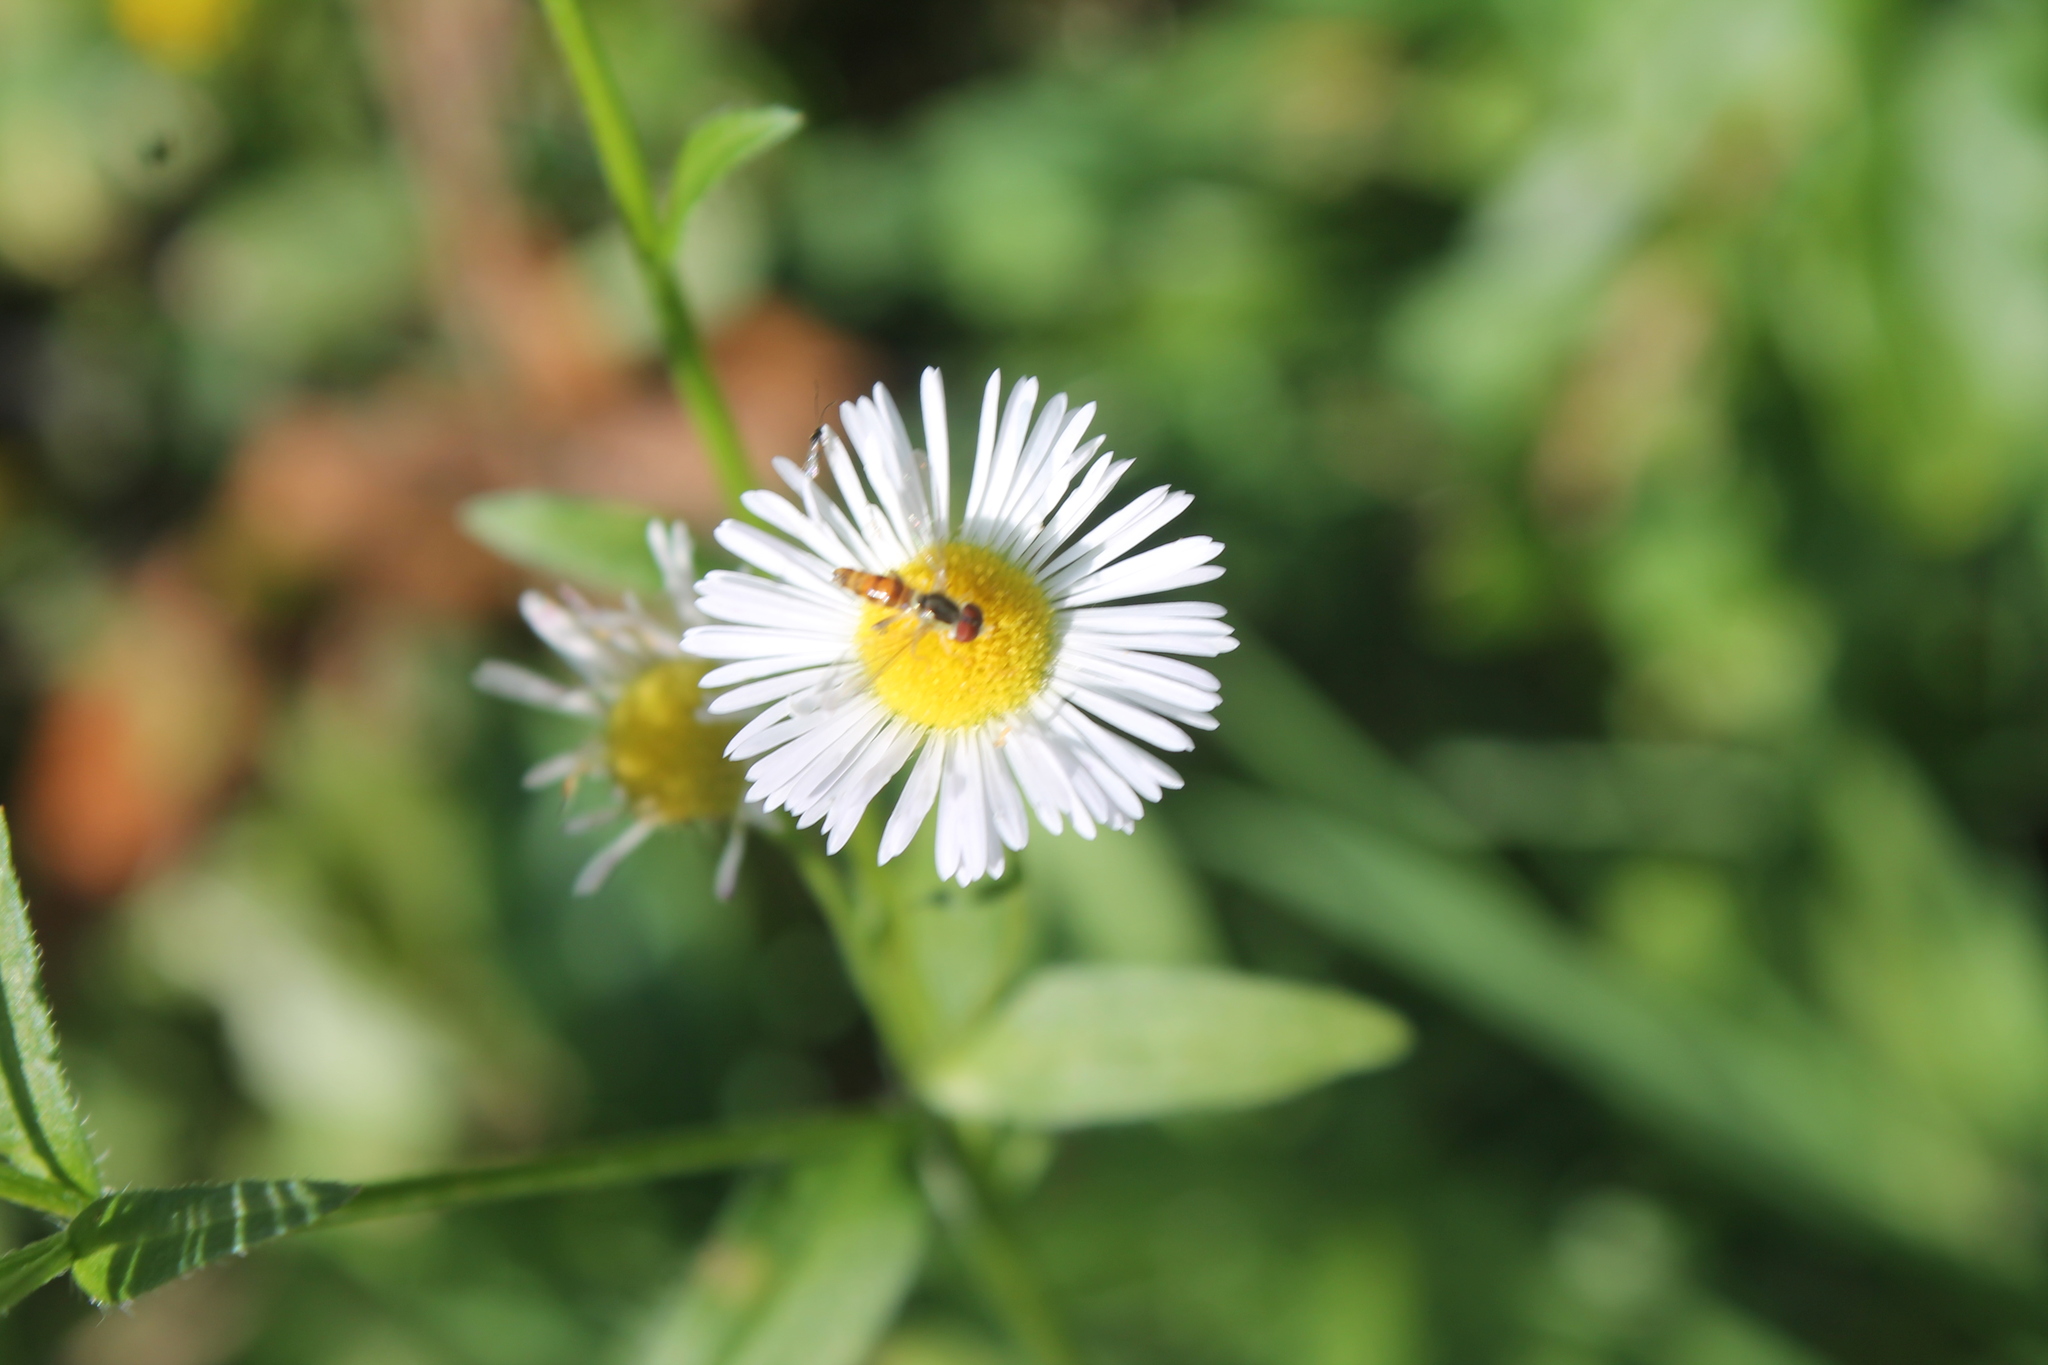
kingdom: Animalia
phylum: Arthropoda
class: Insecta
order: Diptera
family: Syrphidae
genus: Toxomerus
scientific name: Toxomerus geminatus
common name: Eastern calligrapher
